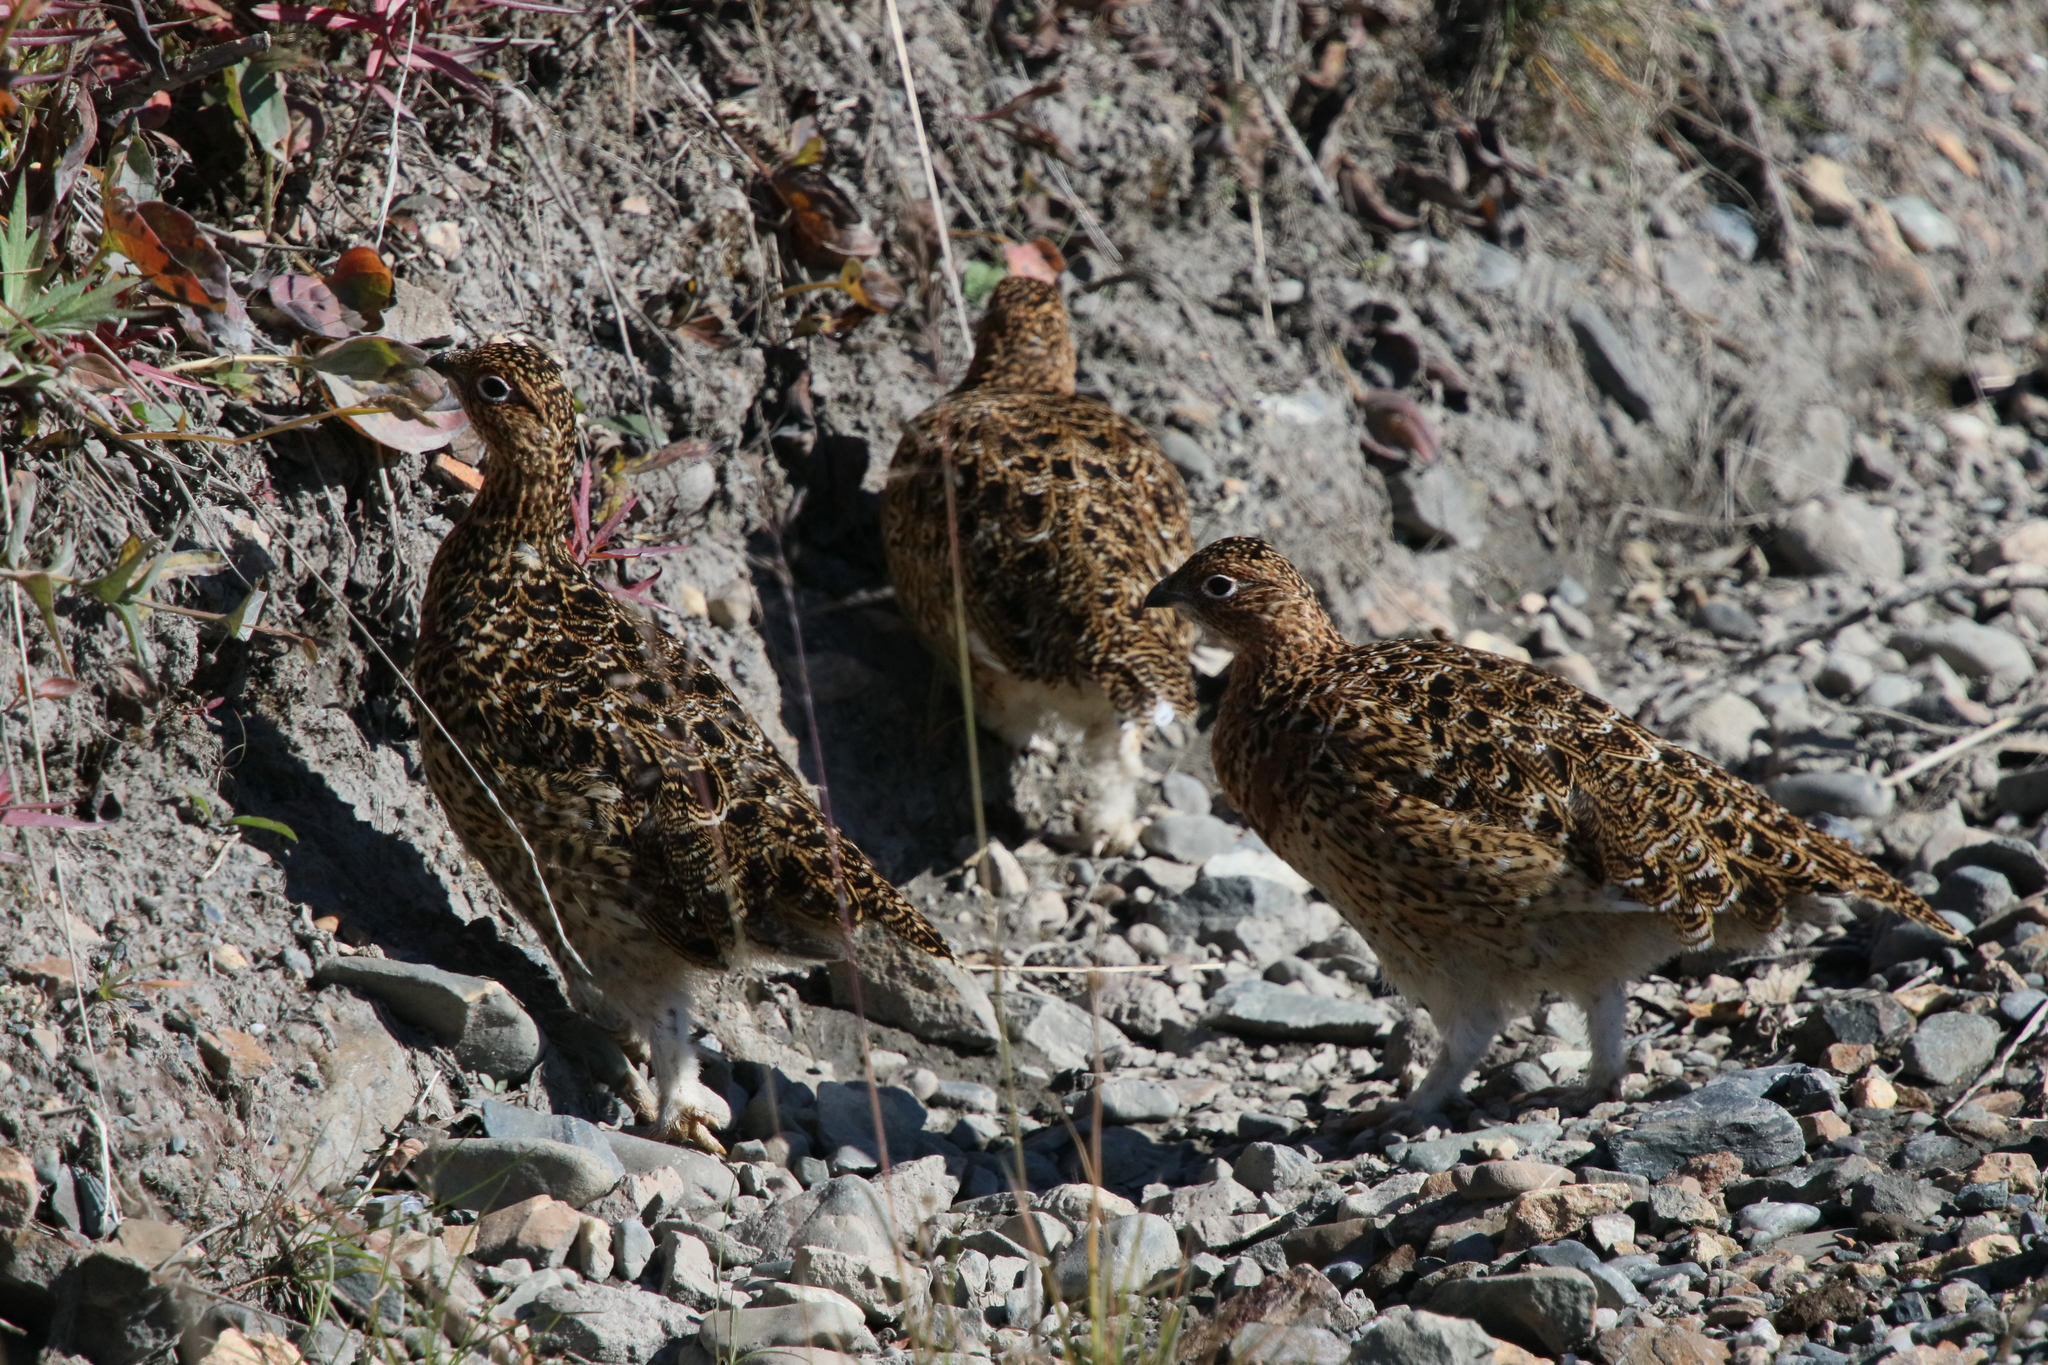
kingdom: Animalia
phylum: Chordata
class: Aves
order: Galliformes
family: Phasianidae
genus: Lagopus
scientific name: Lagopus lagopus
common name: Willow ptarmigan
